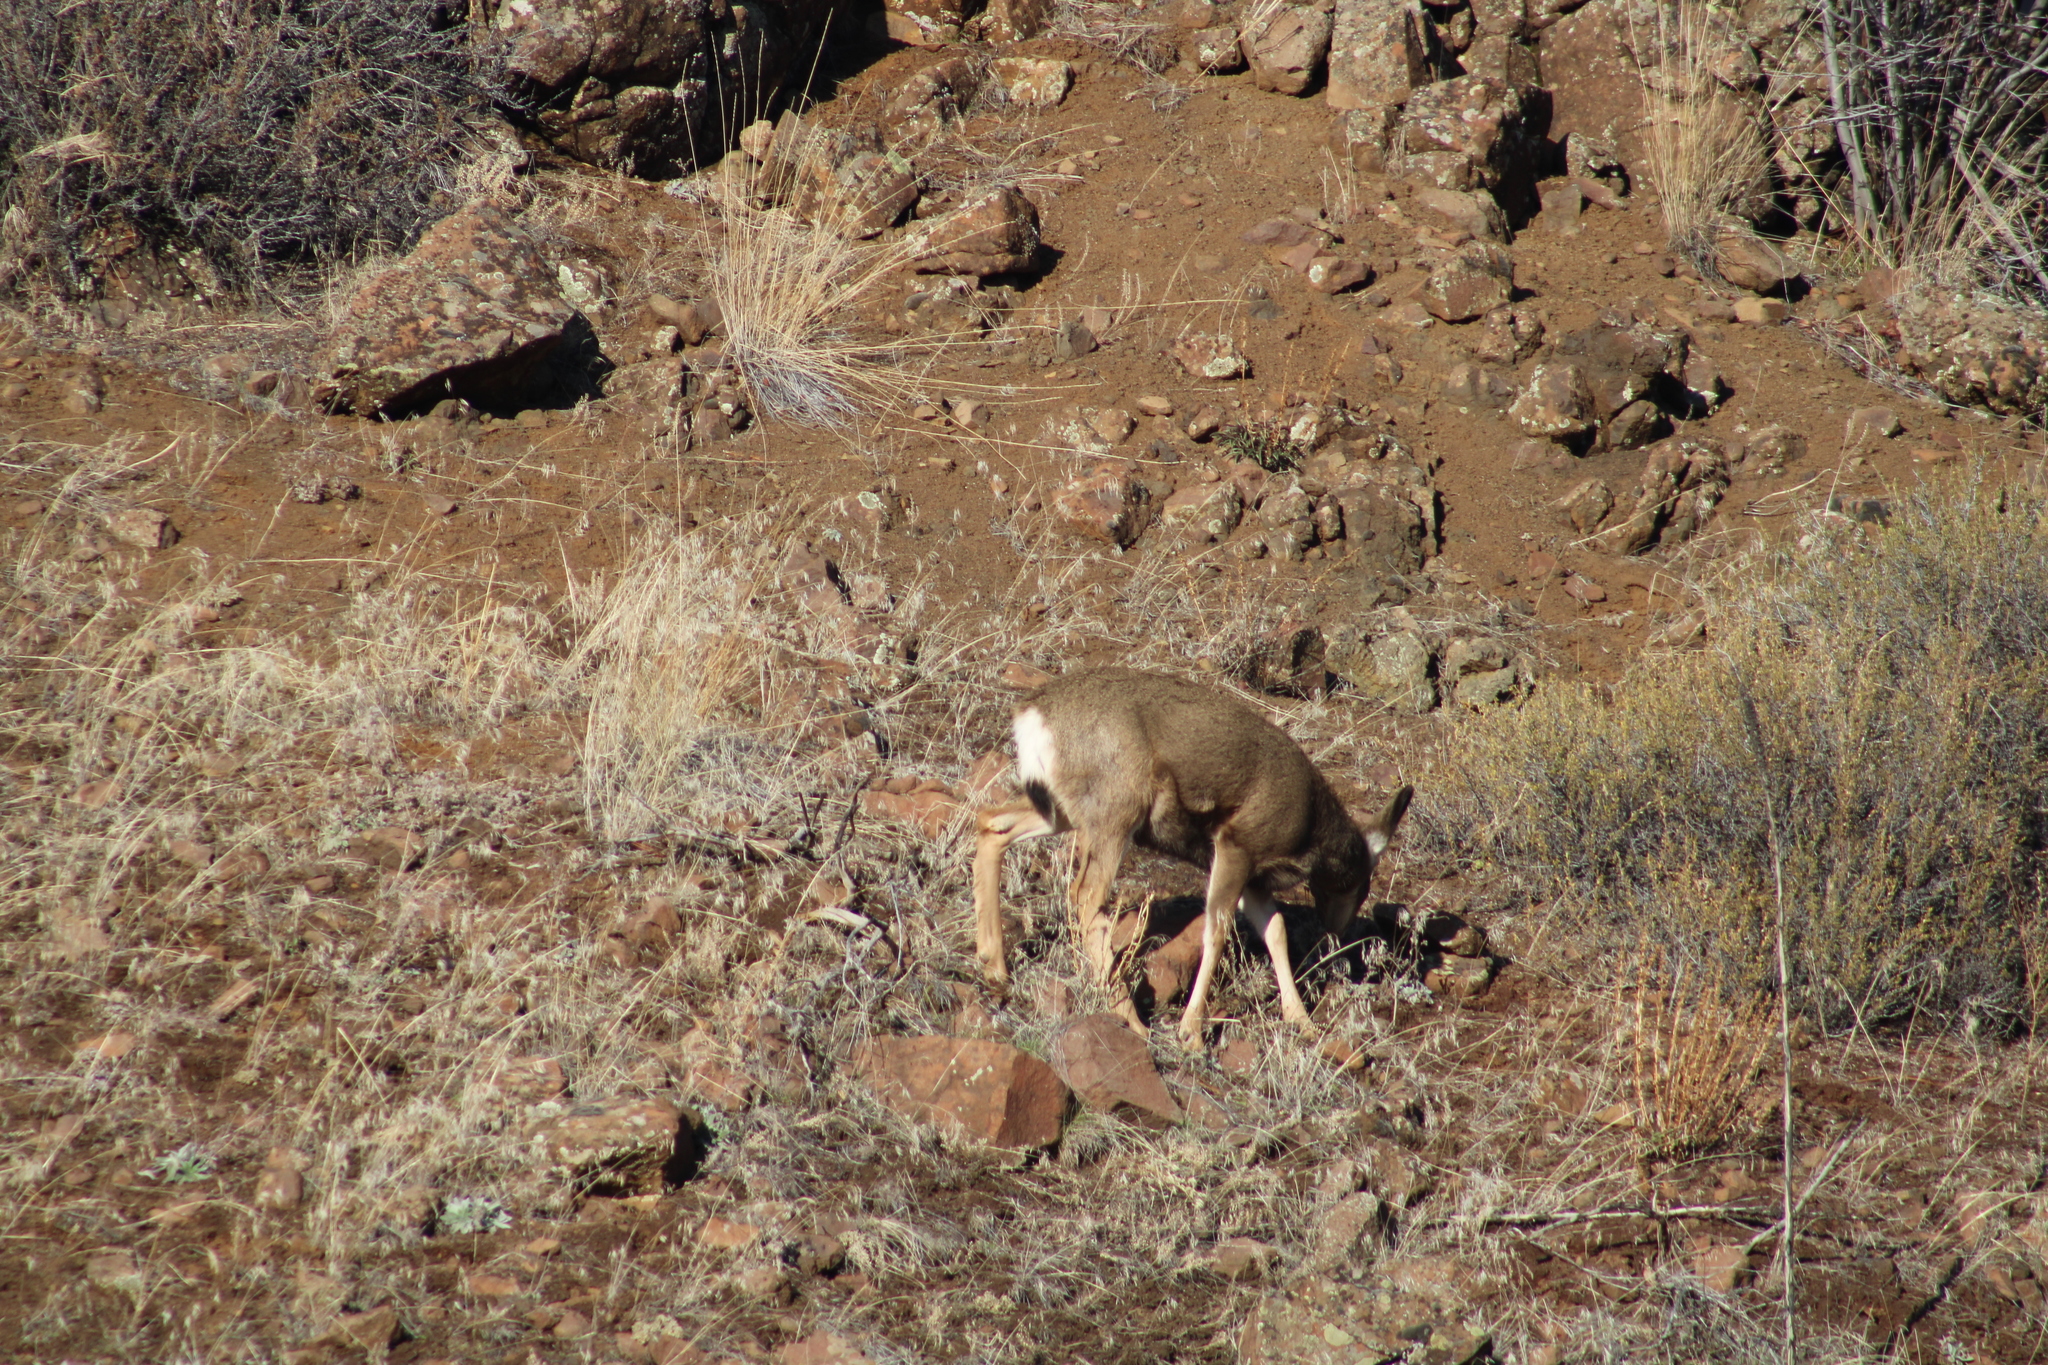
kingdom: Animalia
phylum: Chordata
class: Mammalia
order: Artiodactyla
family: Cervidae
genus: Odocoileus
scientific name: Odocoileus hemionus
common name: Mule deer
